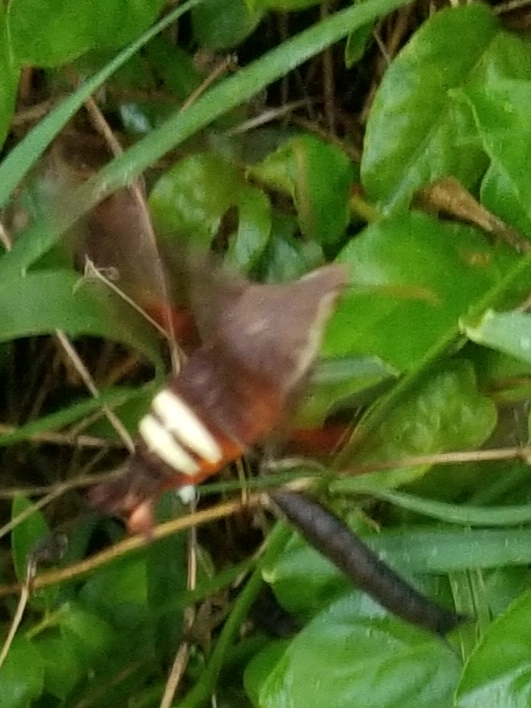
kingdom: Animalia
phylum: Arthropoda
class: Insecta
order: Lepidoptera
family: Sphingidae
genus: Amphion
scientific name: Amphion floridensis
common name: Nessus sphinx
